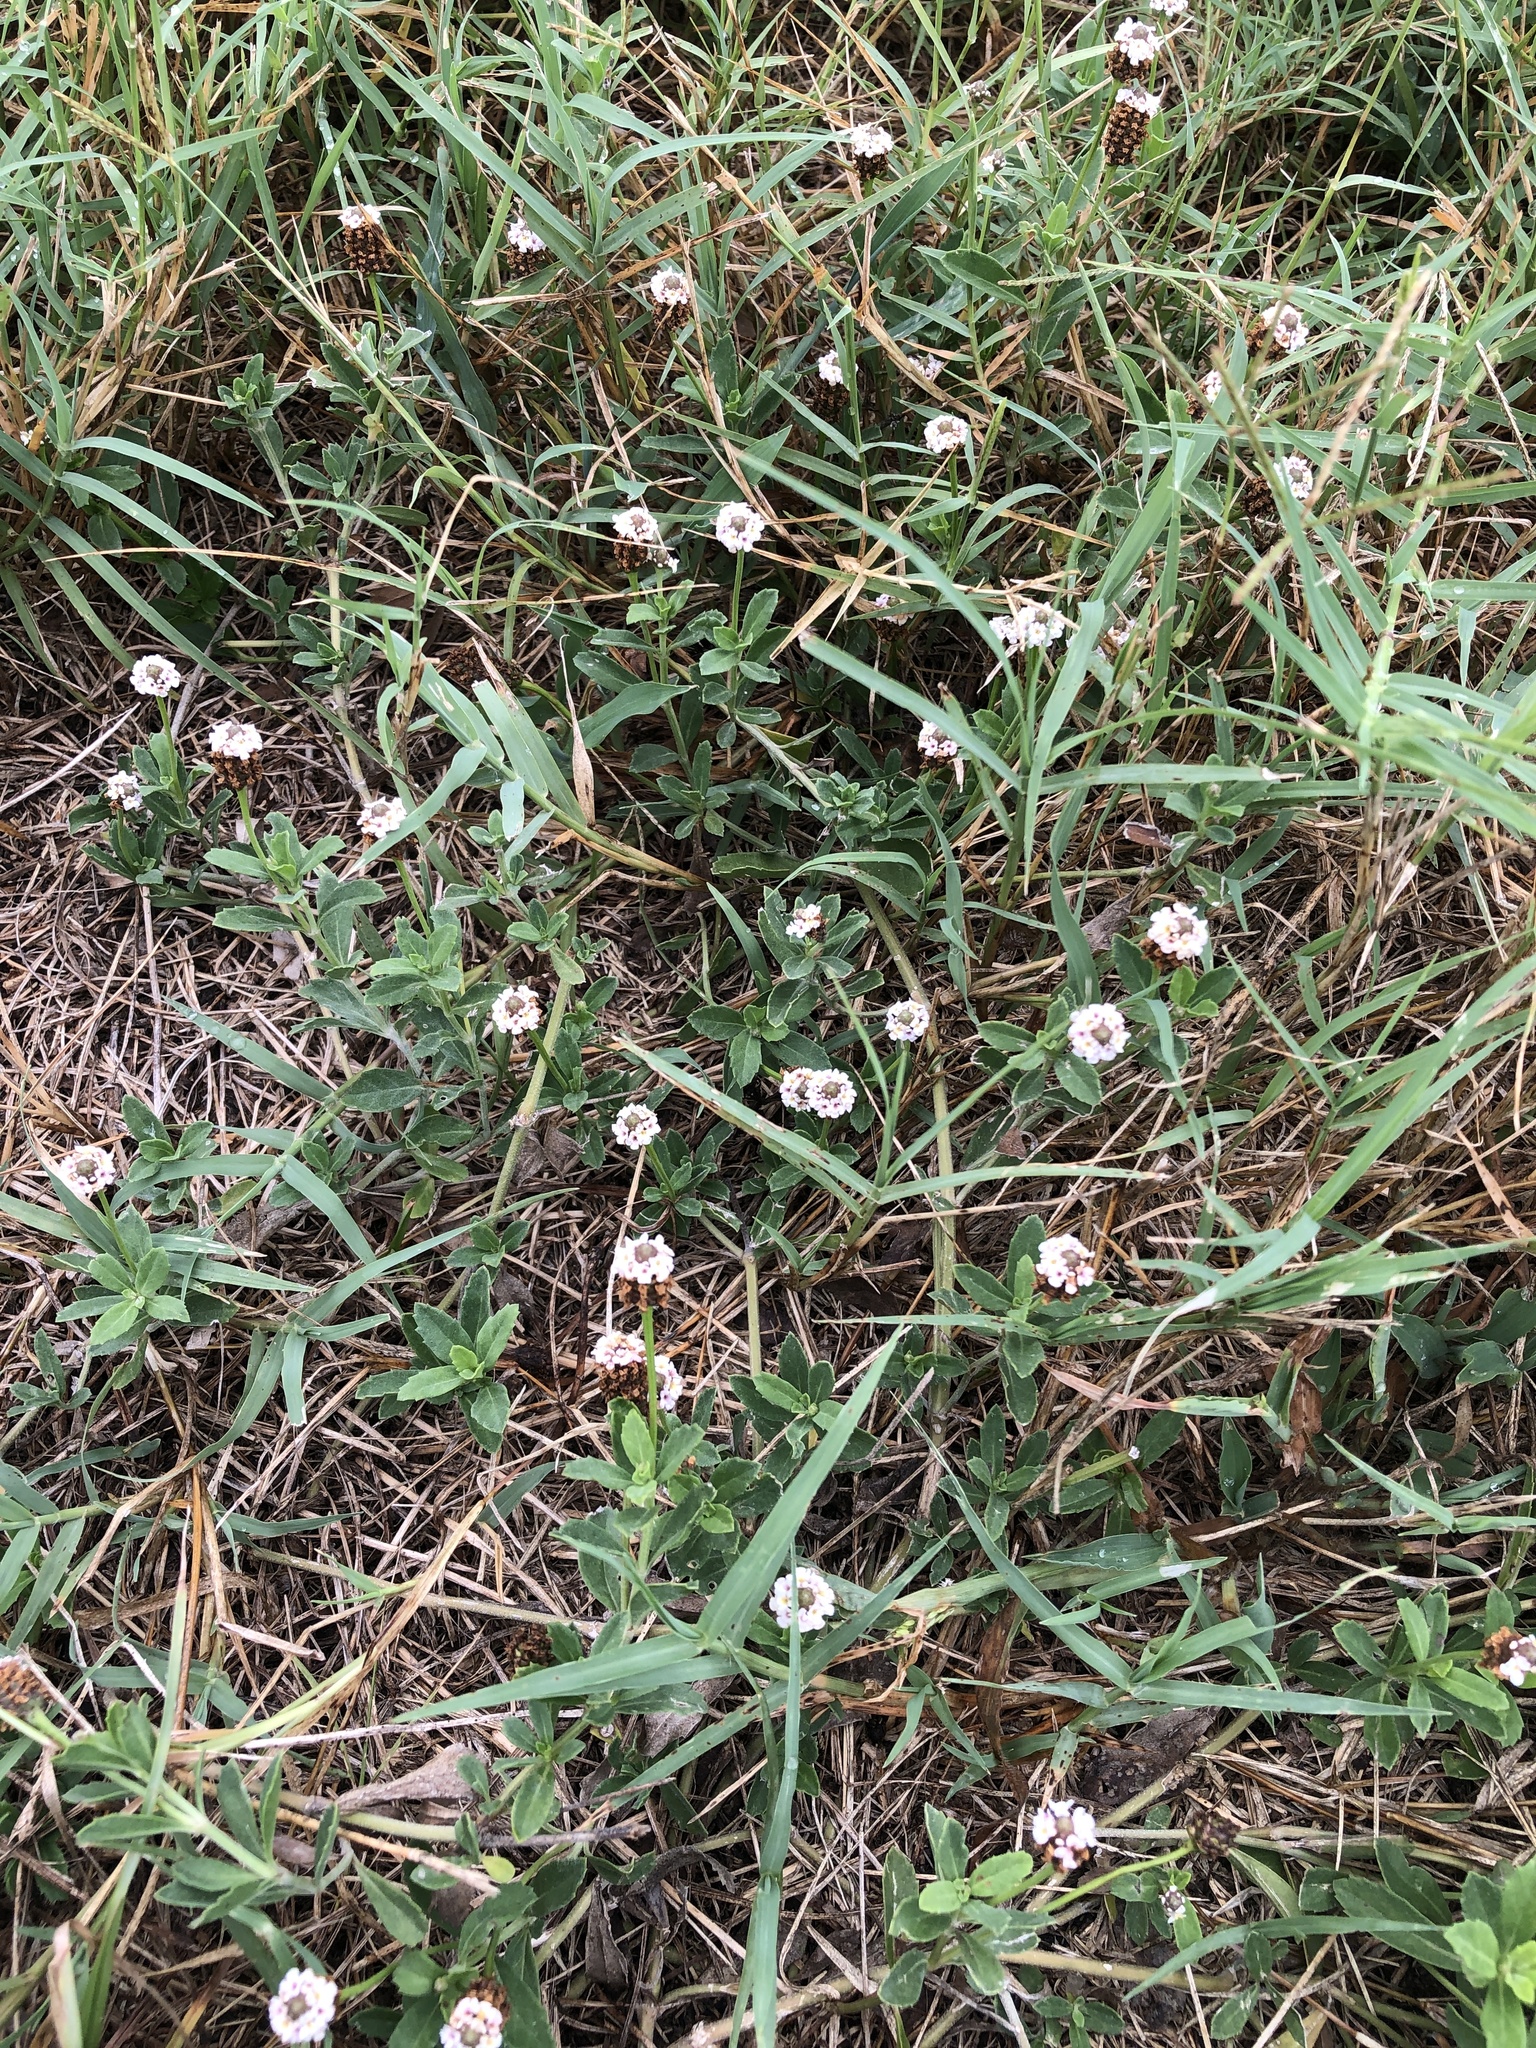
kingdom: Plantae
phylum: Tracheophyta
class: Magnoliopsida
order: Lamiales
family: Verbenaceae
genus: Phyla
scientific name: Phyla nodiflora
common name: Frogfruit
